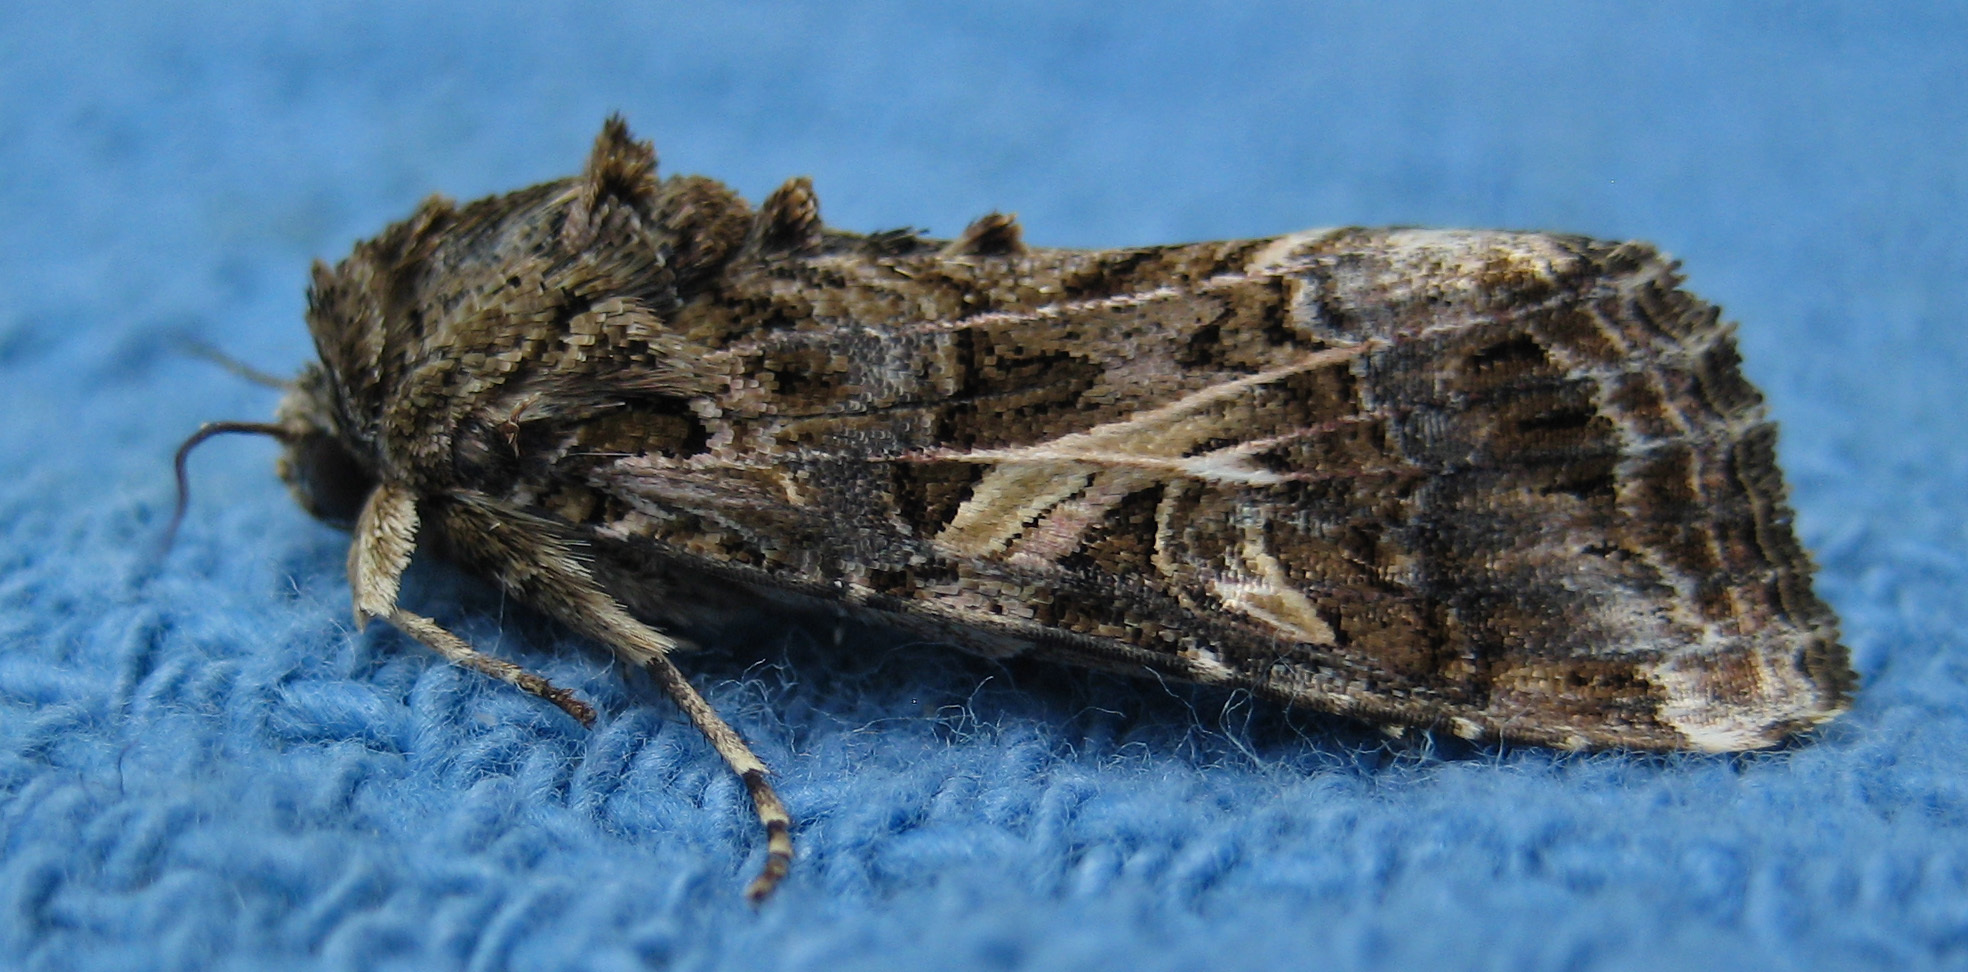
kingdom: Animalia
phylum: Arthropoda
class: Insecta
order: Lepidoptera
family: Noctuidae
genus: Spodoptera
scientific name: Spodoptera ornithogalli
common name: Yellow-striped armyworm
